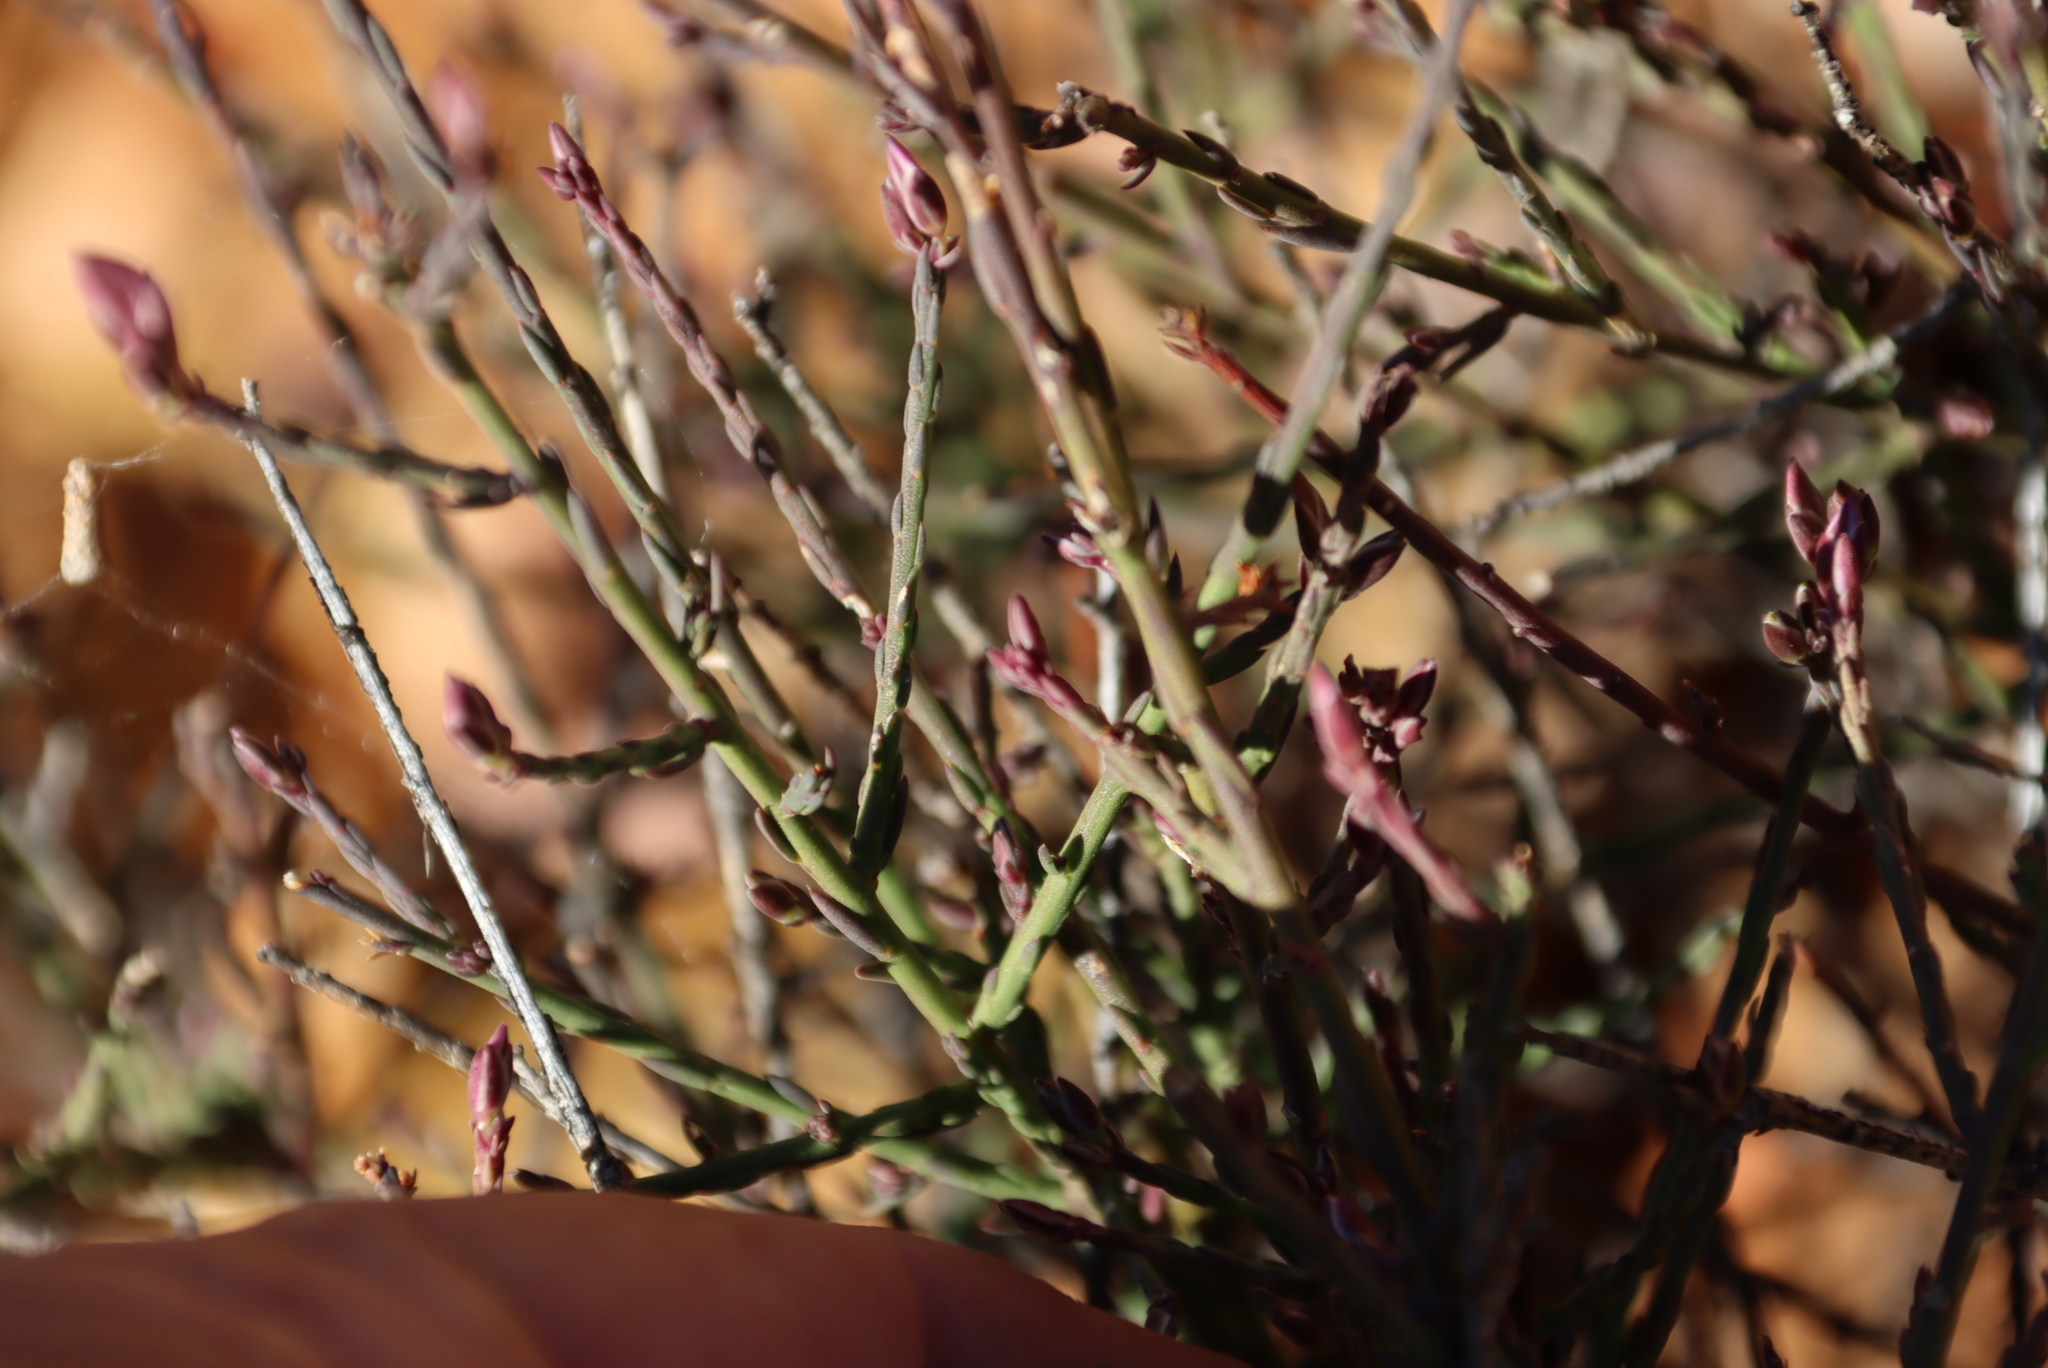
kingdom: Plantae
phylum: Tracheophyta
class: Magnoliopsida
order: Fabales
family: Polygalaceae
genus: Polygala
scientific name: Polygala microlopha
